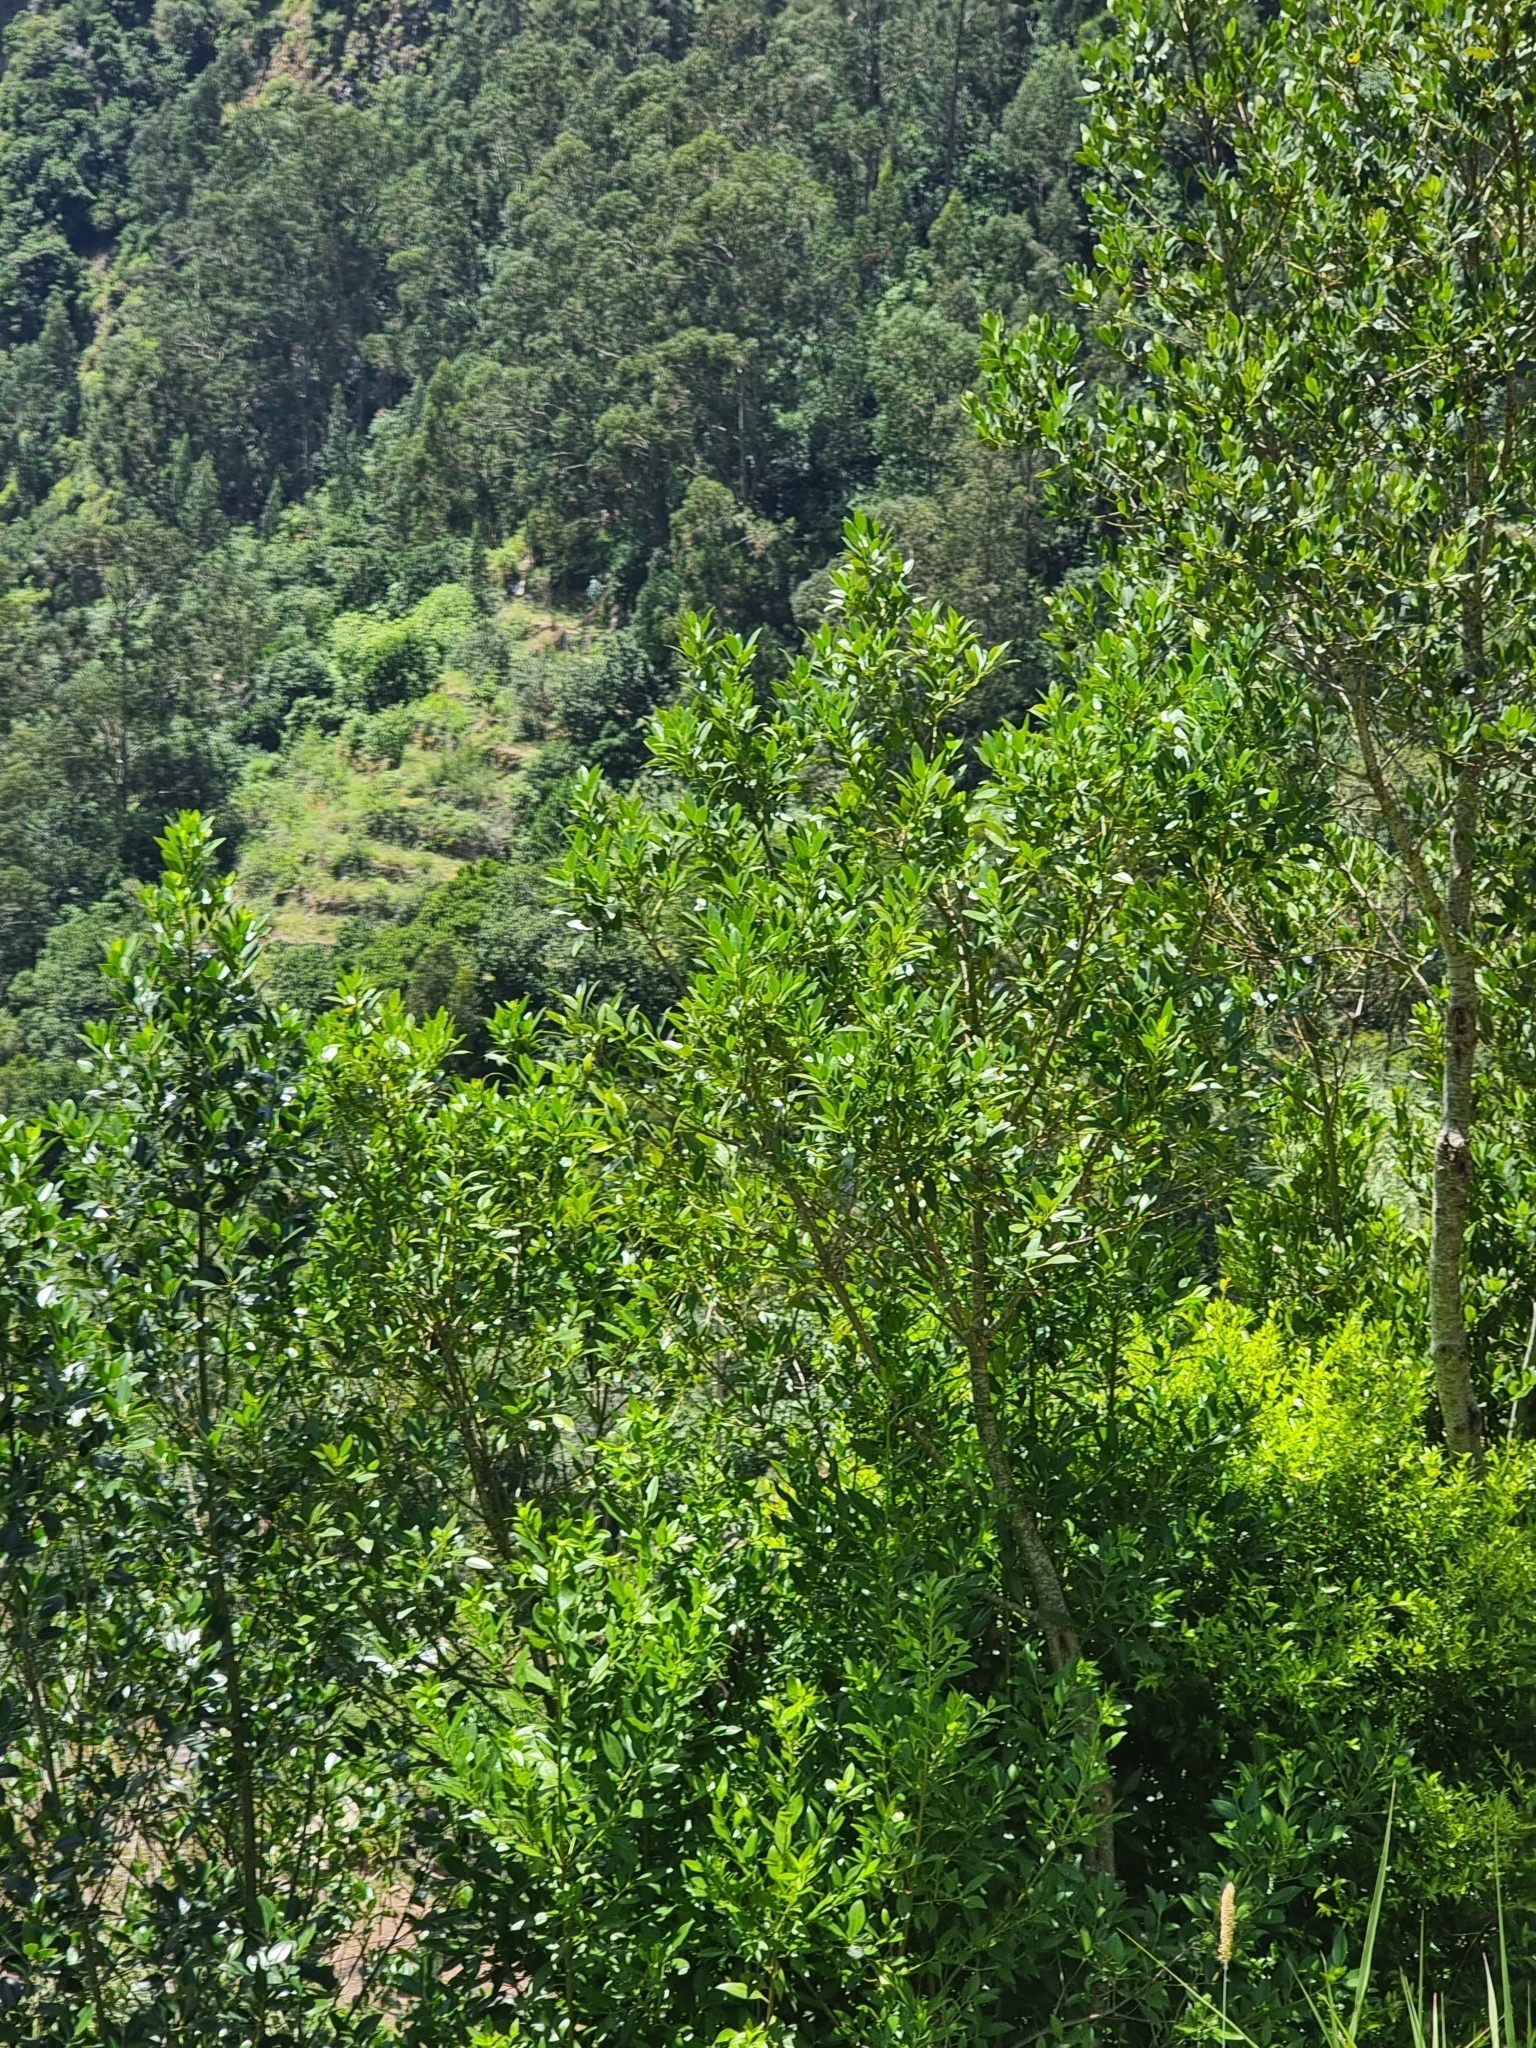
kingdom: Plantae
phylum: Tracheophyta
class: Magnoliopsida
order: Aquifoliales
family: Aquifoliaceae
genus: Ilex
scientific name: Ilex canariensis
